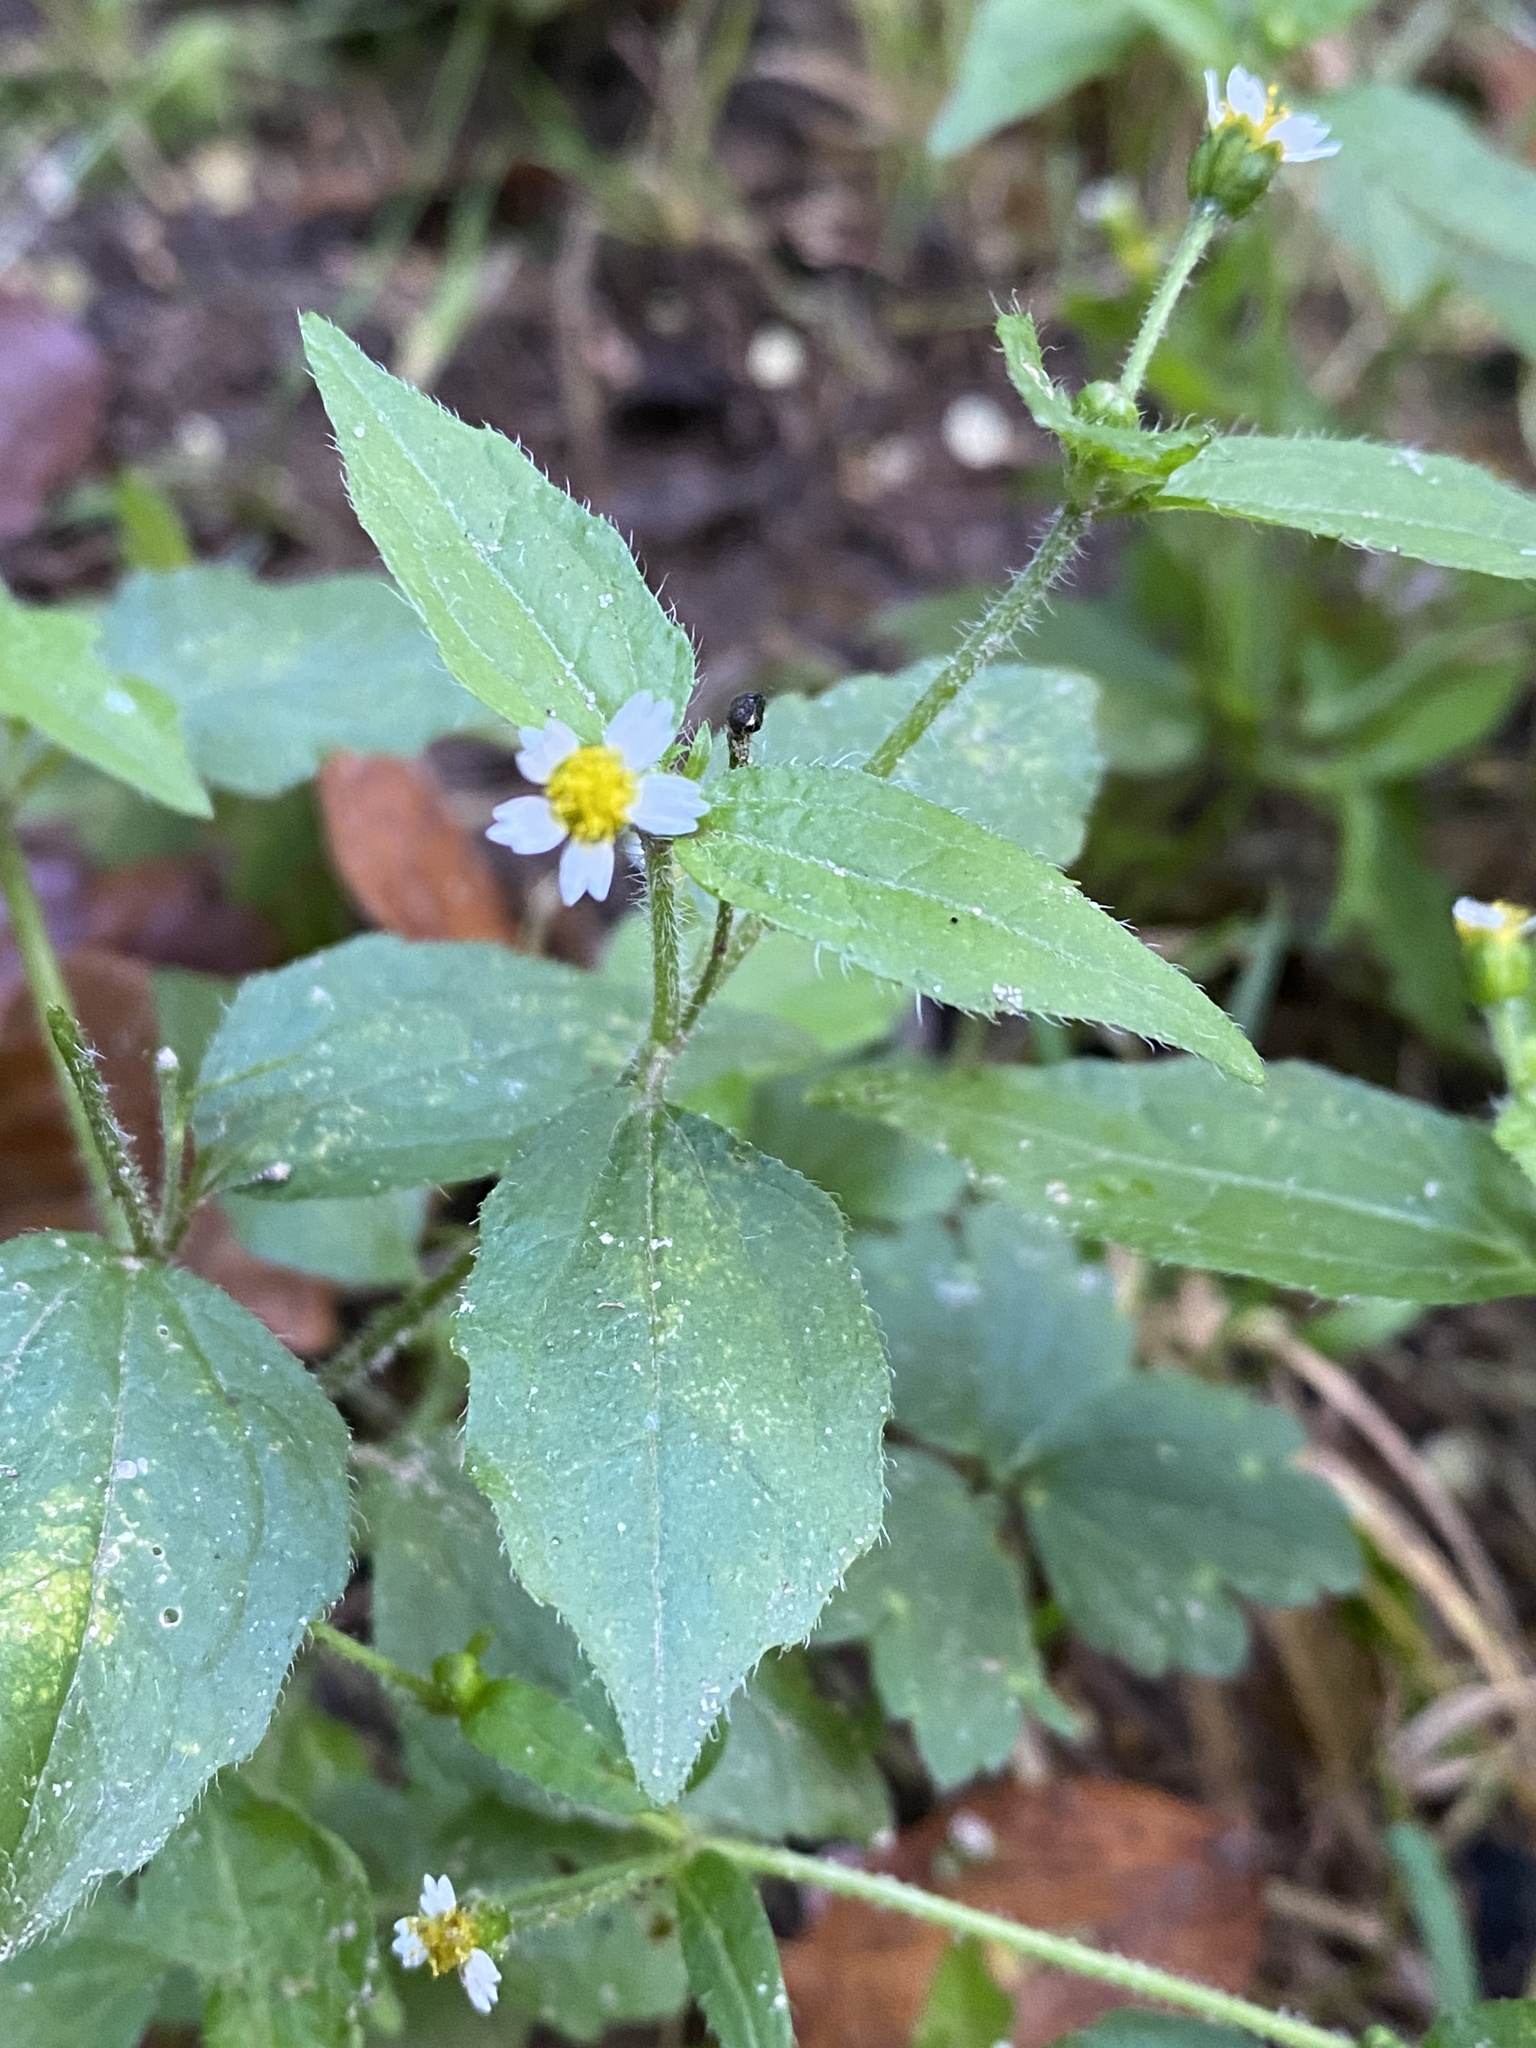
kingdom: Plantae
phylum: Tracheophyta
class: Magnoliopsida
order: Asterales
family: Asteraceae
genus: Galinsoga
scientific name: Galinsoga quadriradiata
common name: Shaggy soldier
